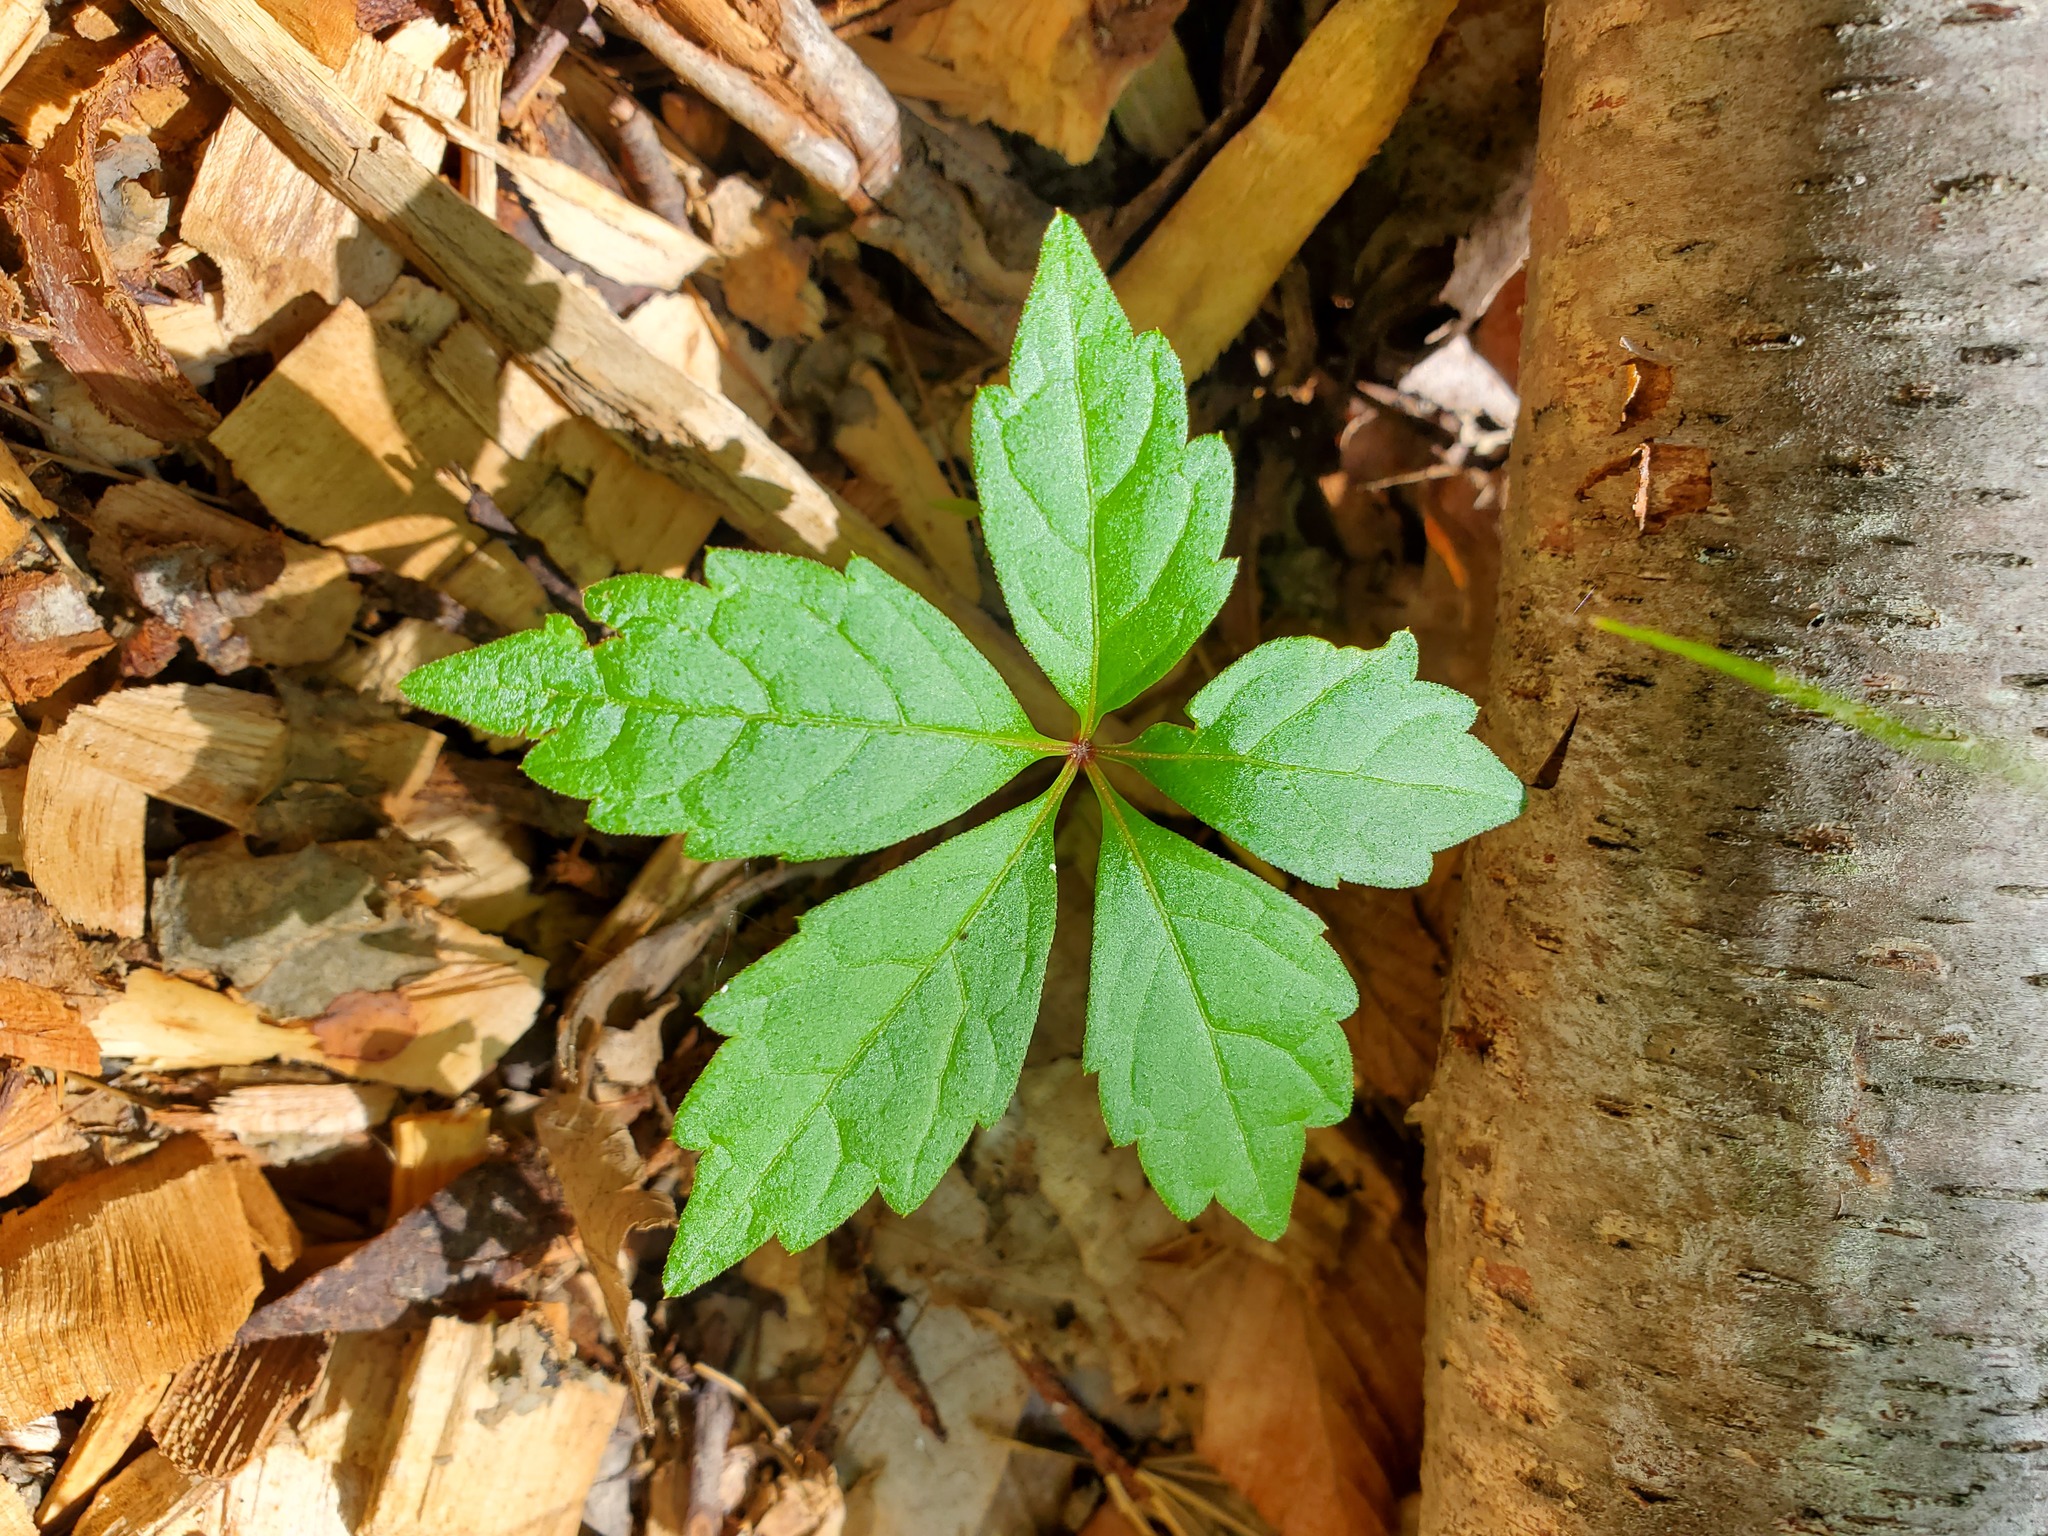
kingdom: Plantae
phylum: Tracheophyta
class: Magnoliopsida
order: Vitales
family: Vitaceae
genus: Parthenocissus
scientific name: Parthenocissus quinquefolia
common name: Virginia-creeper
